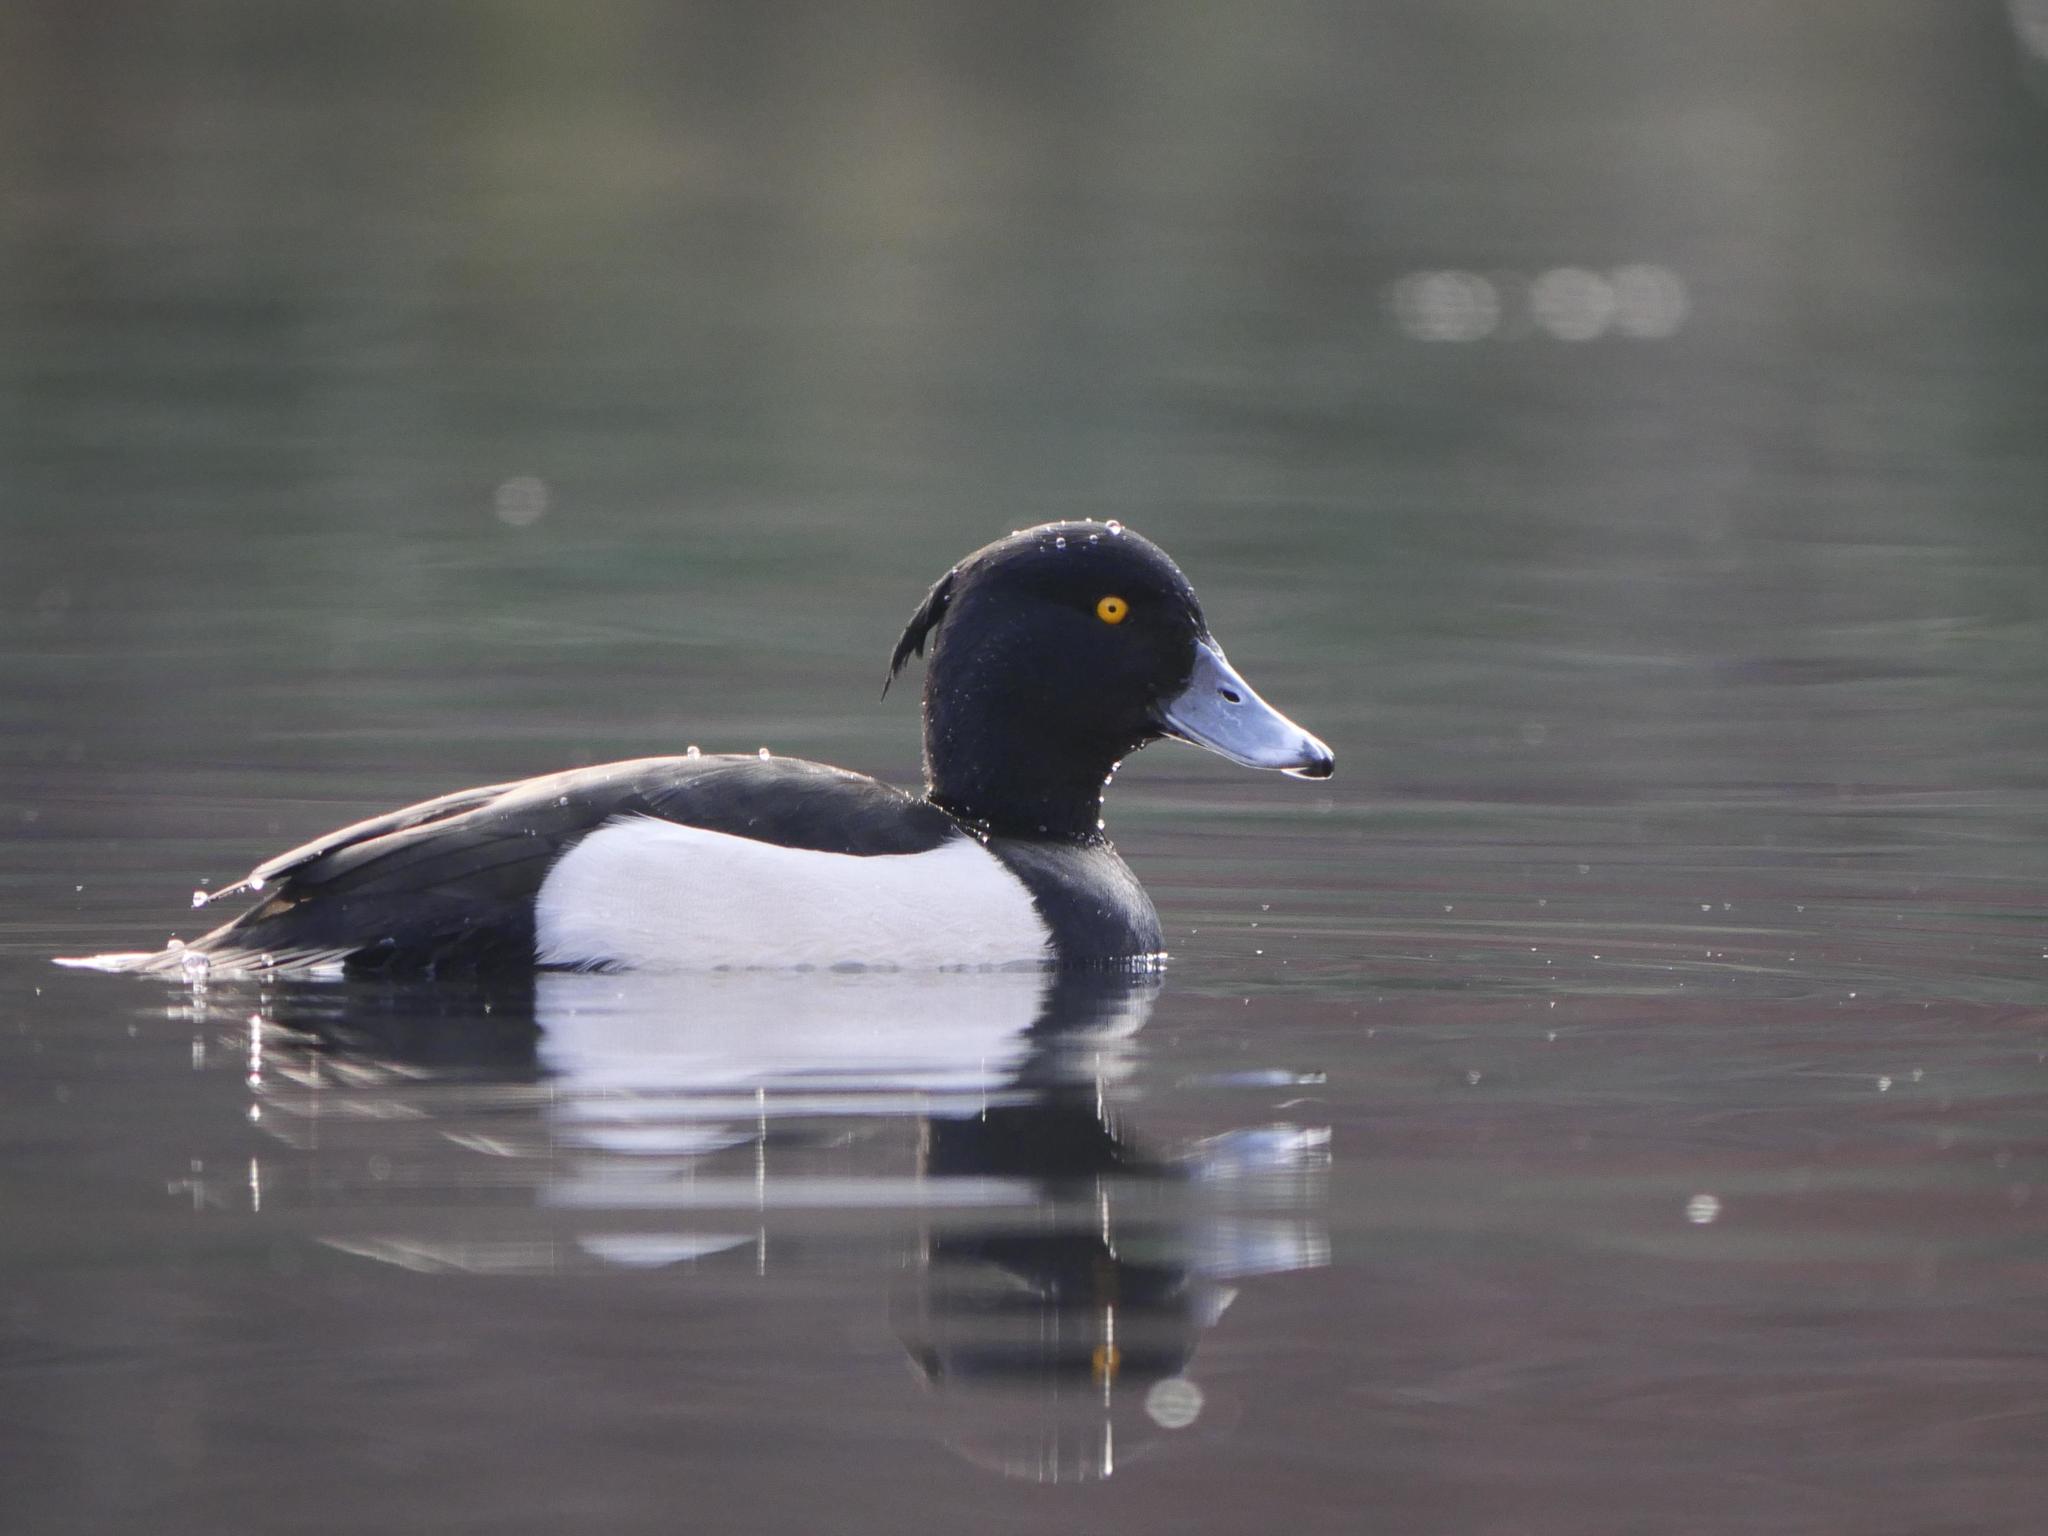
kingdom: Animalia
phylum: Chordata
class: Aves
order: Anseriformes
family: Anatidae
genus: Aythya
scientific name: Aythya fuligula
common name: Tufted duck
